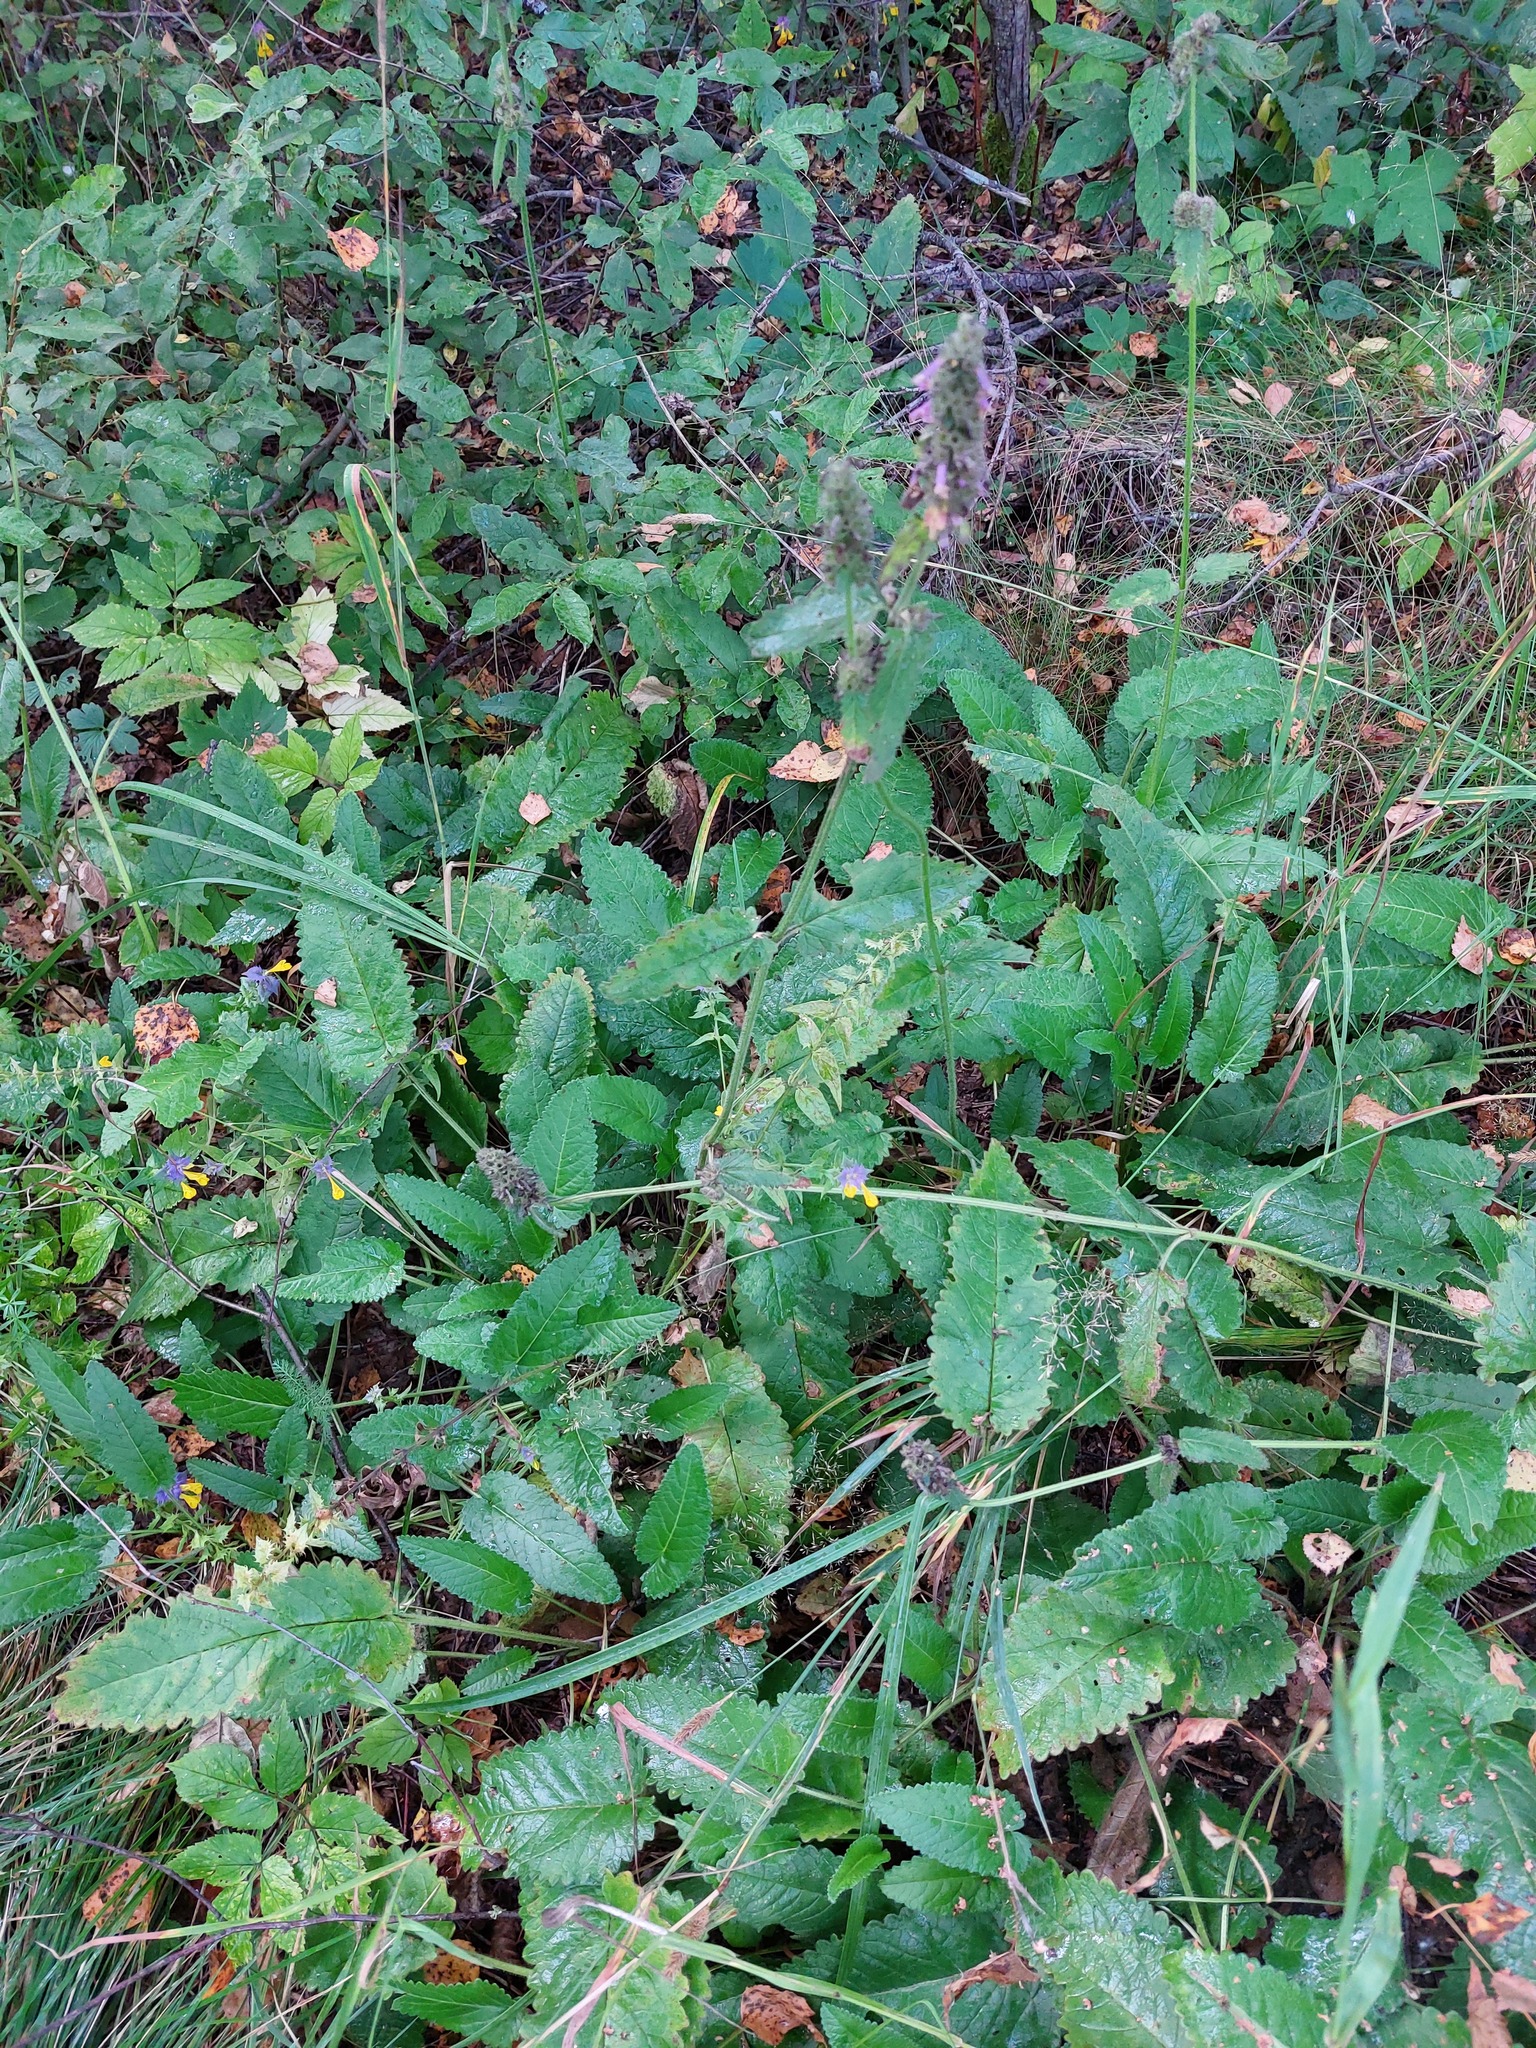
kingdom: Plantae
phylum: Tracheophyta
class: Magnoliopsida
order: Lamiales
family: Lamiaceae
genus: Betonica
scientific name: Betonica officinalis
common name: Bishop's-wort
